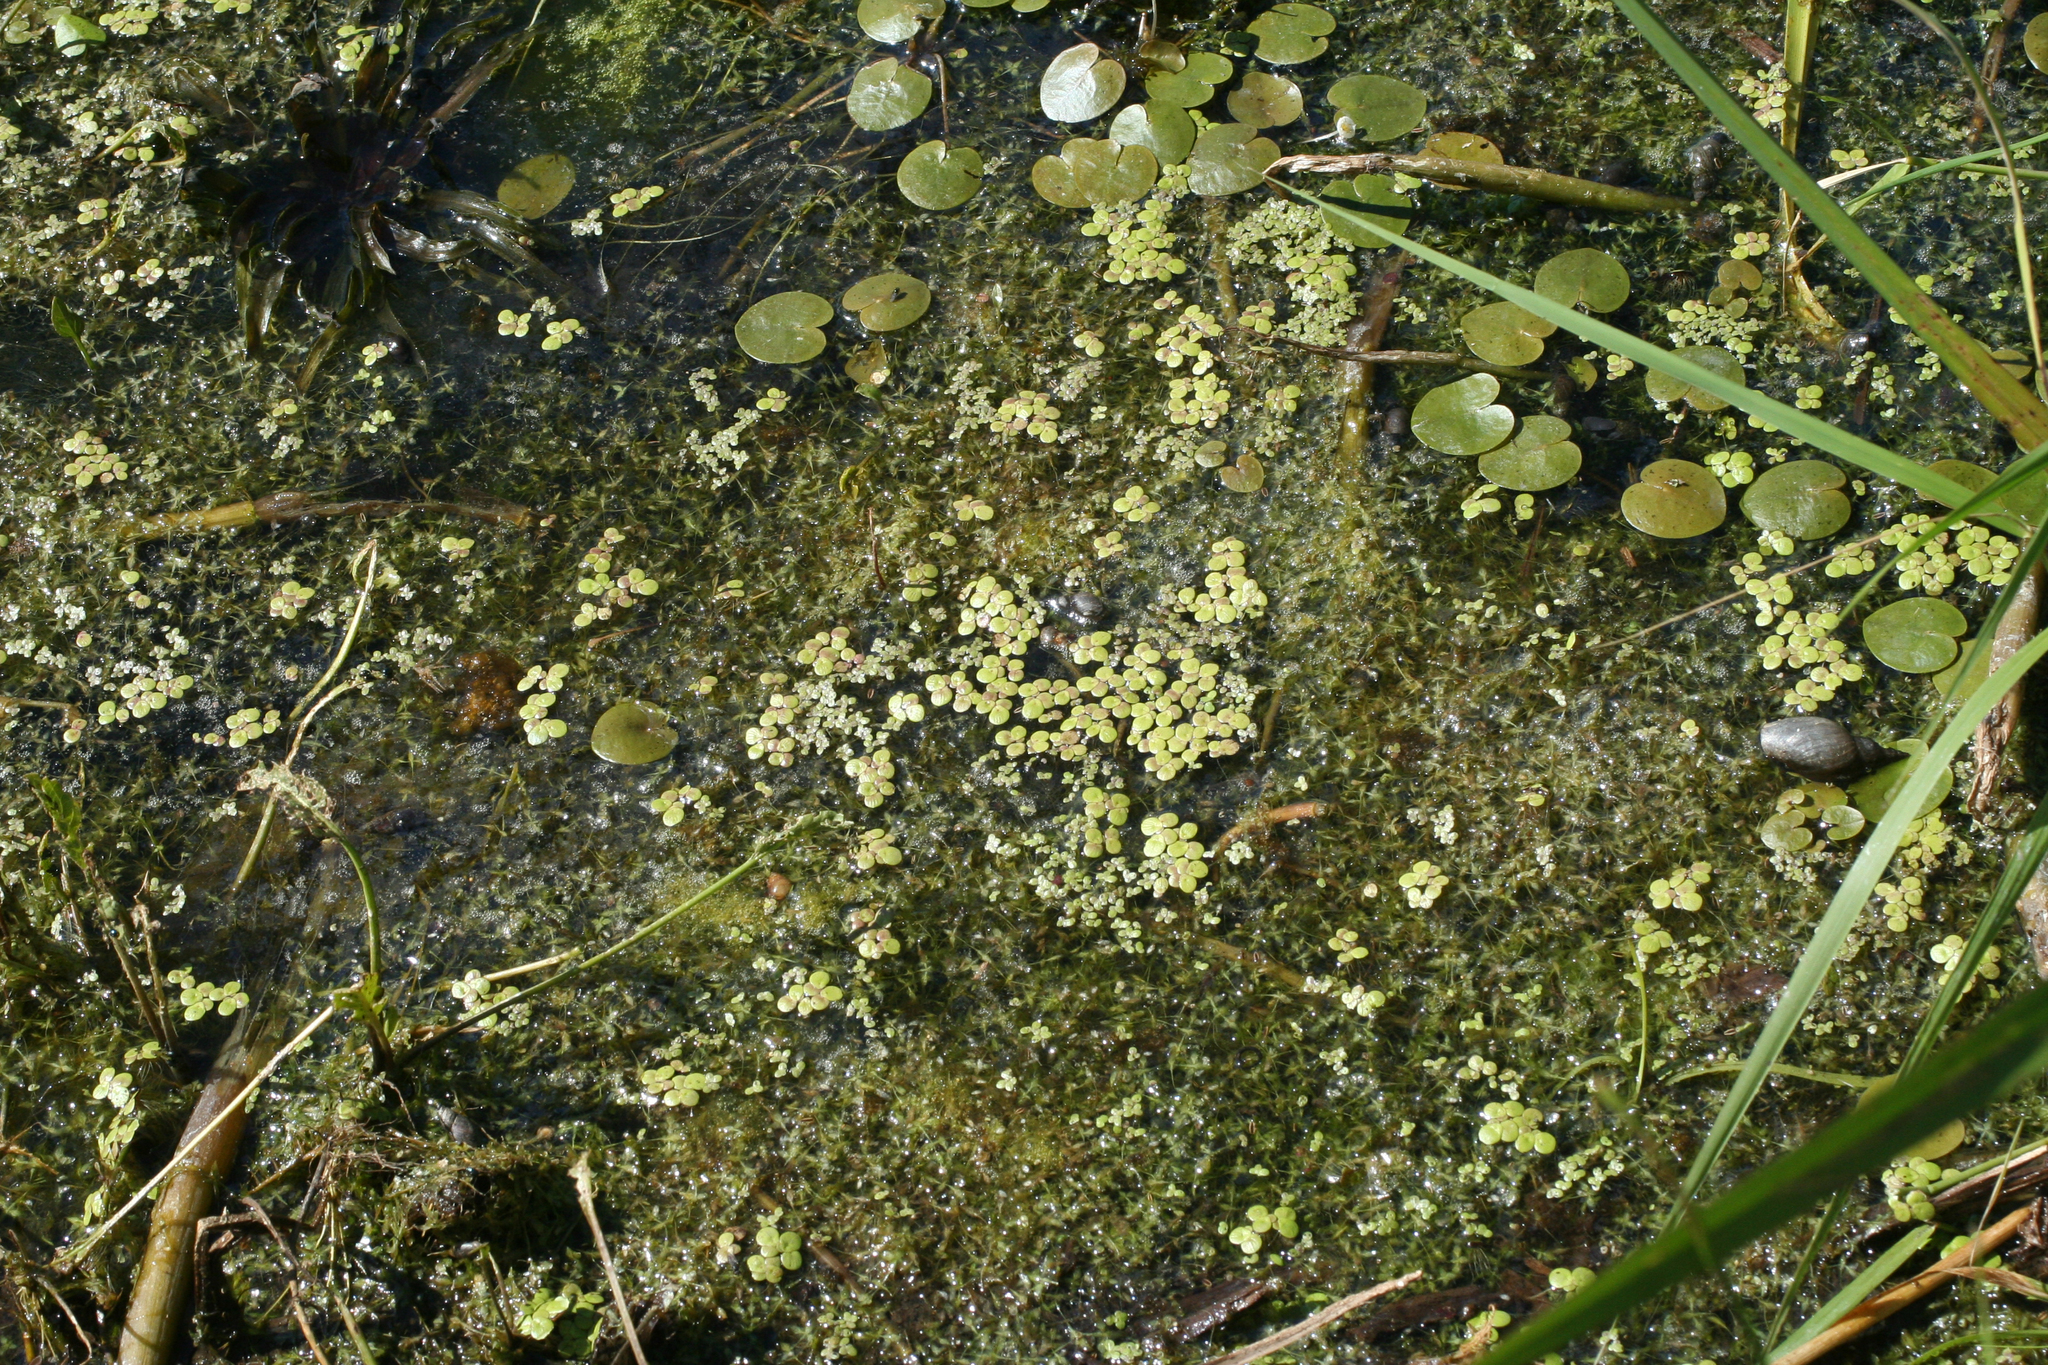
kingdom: Plantae
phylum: Tracheophyta
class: Liliopsida
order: Alismatales
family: Araceae
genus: Spirodela
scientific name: Spirodela polyrhiza
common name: Great duckweed
